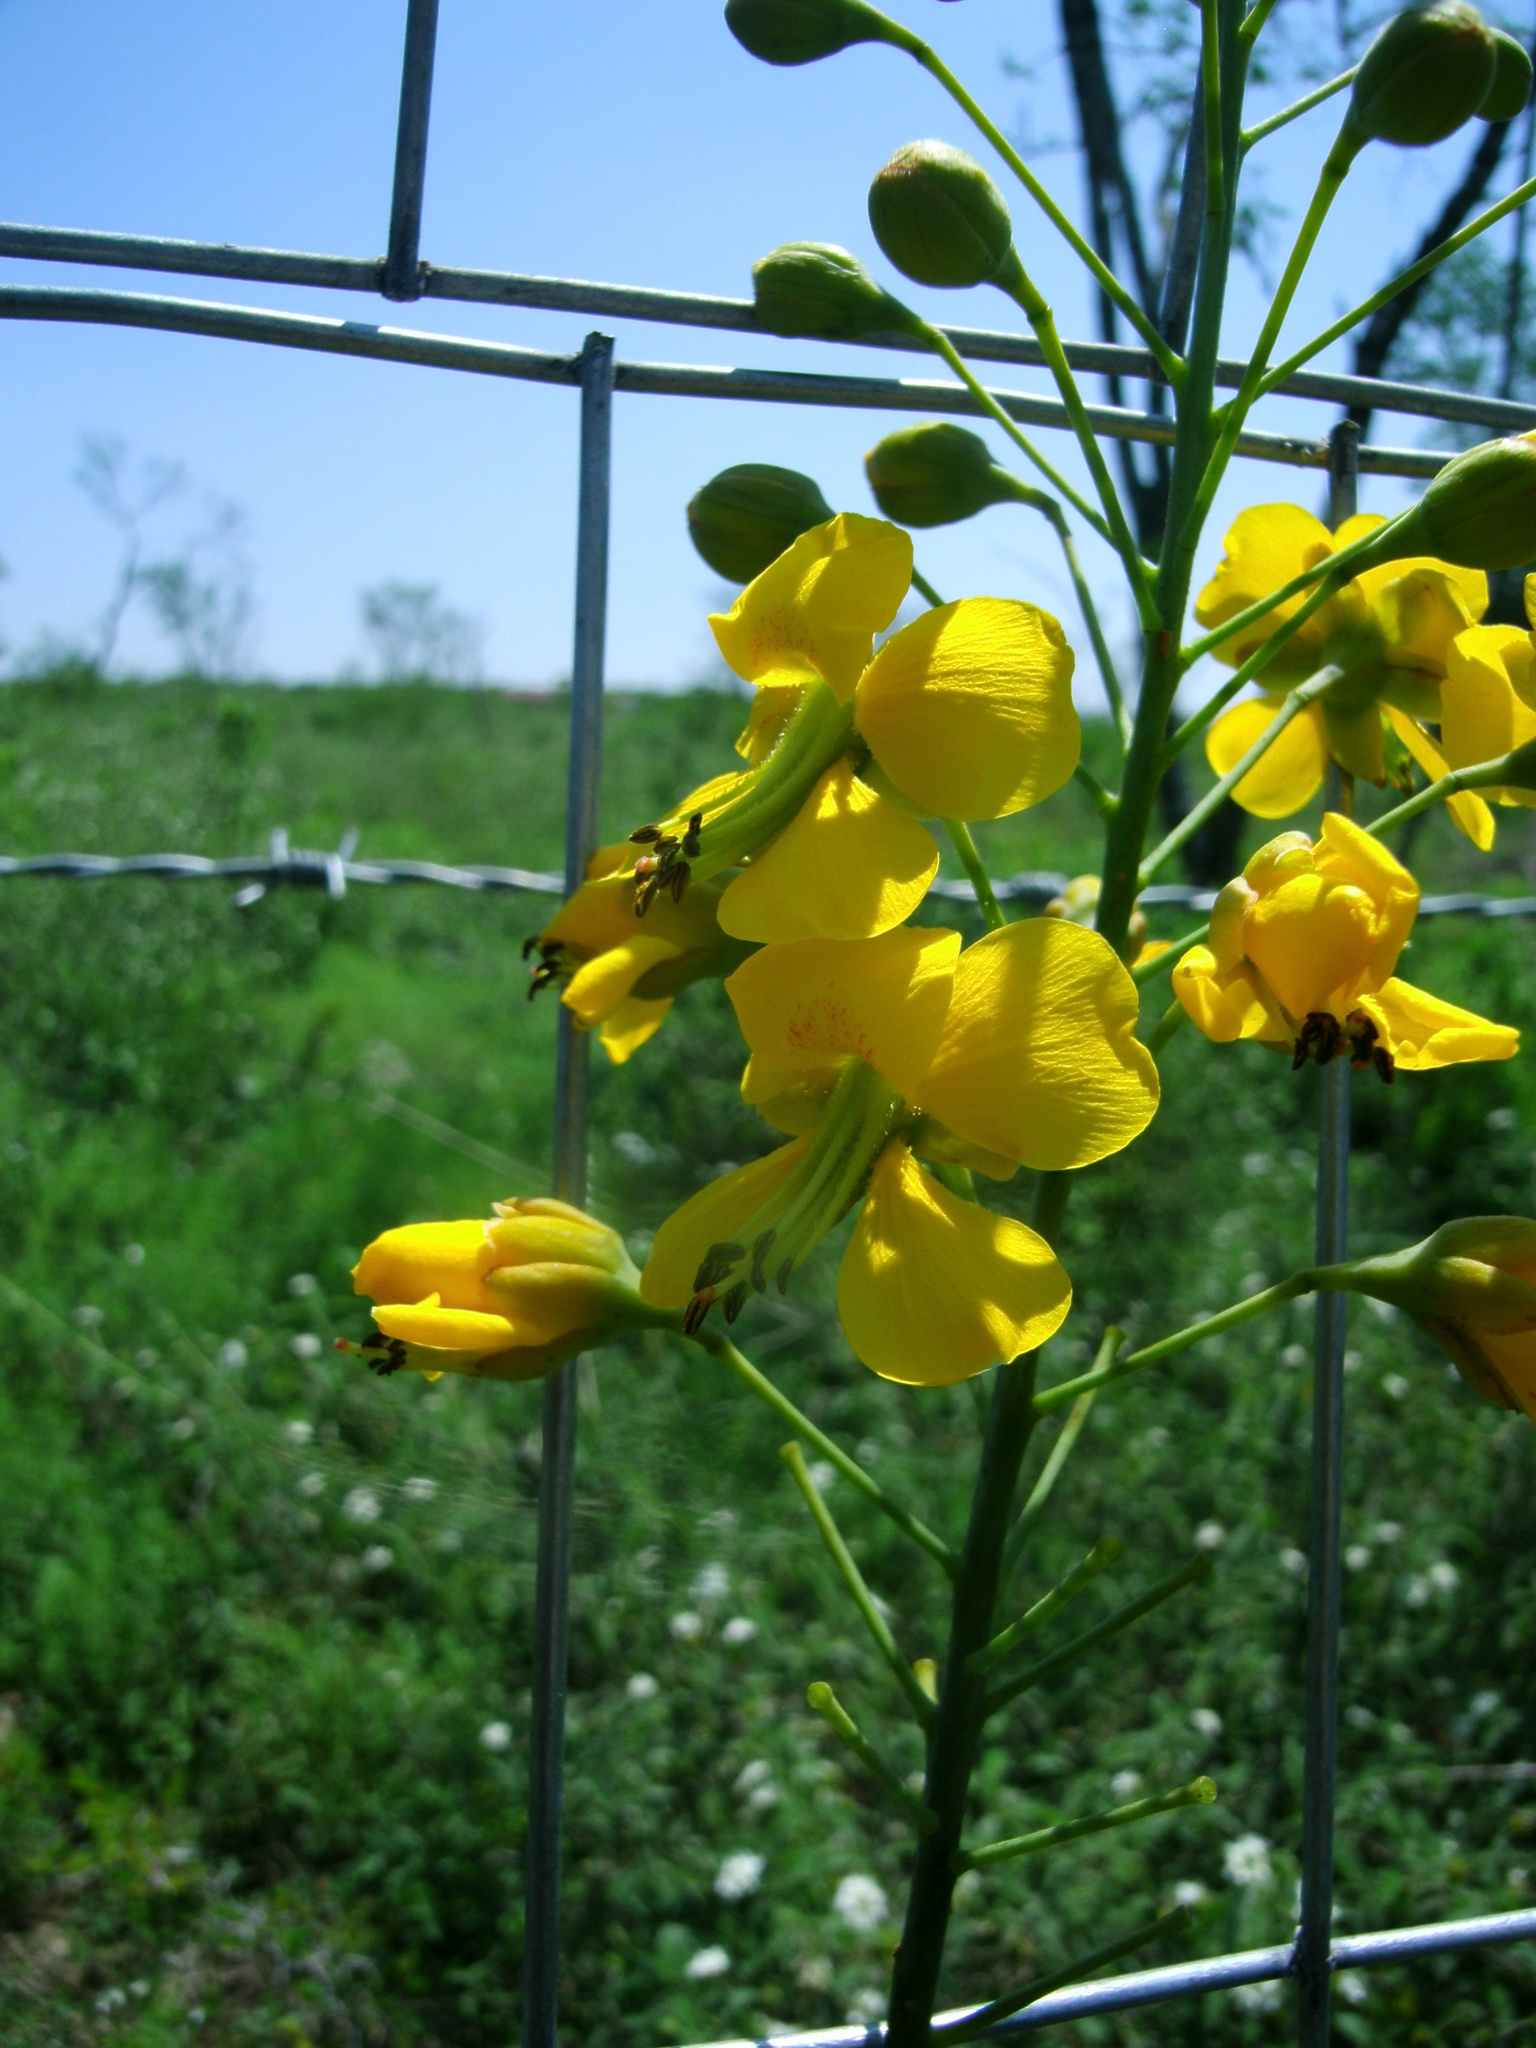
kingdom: Plantae
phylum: Tracheophyta
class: Magnoliopsida
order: Fabales
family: Fabaceae
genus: Erythrostemon
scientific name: Erythrostemon mexicanus
